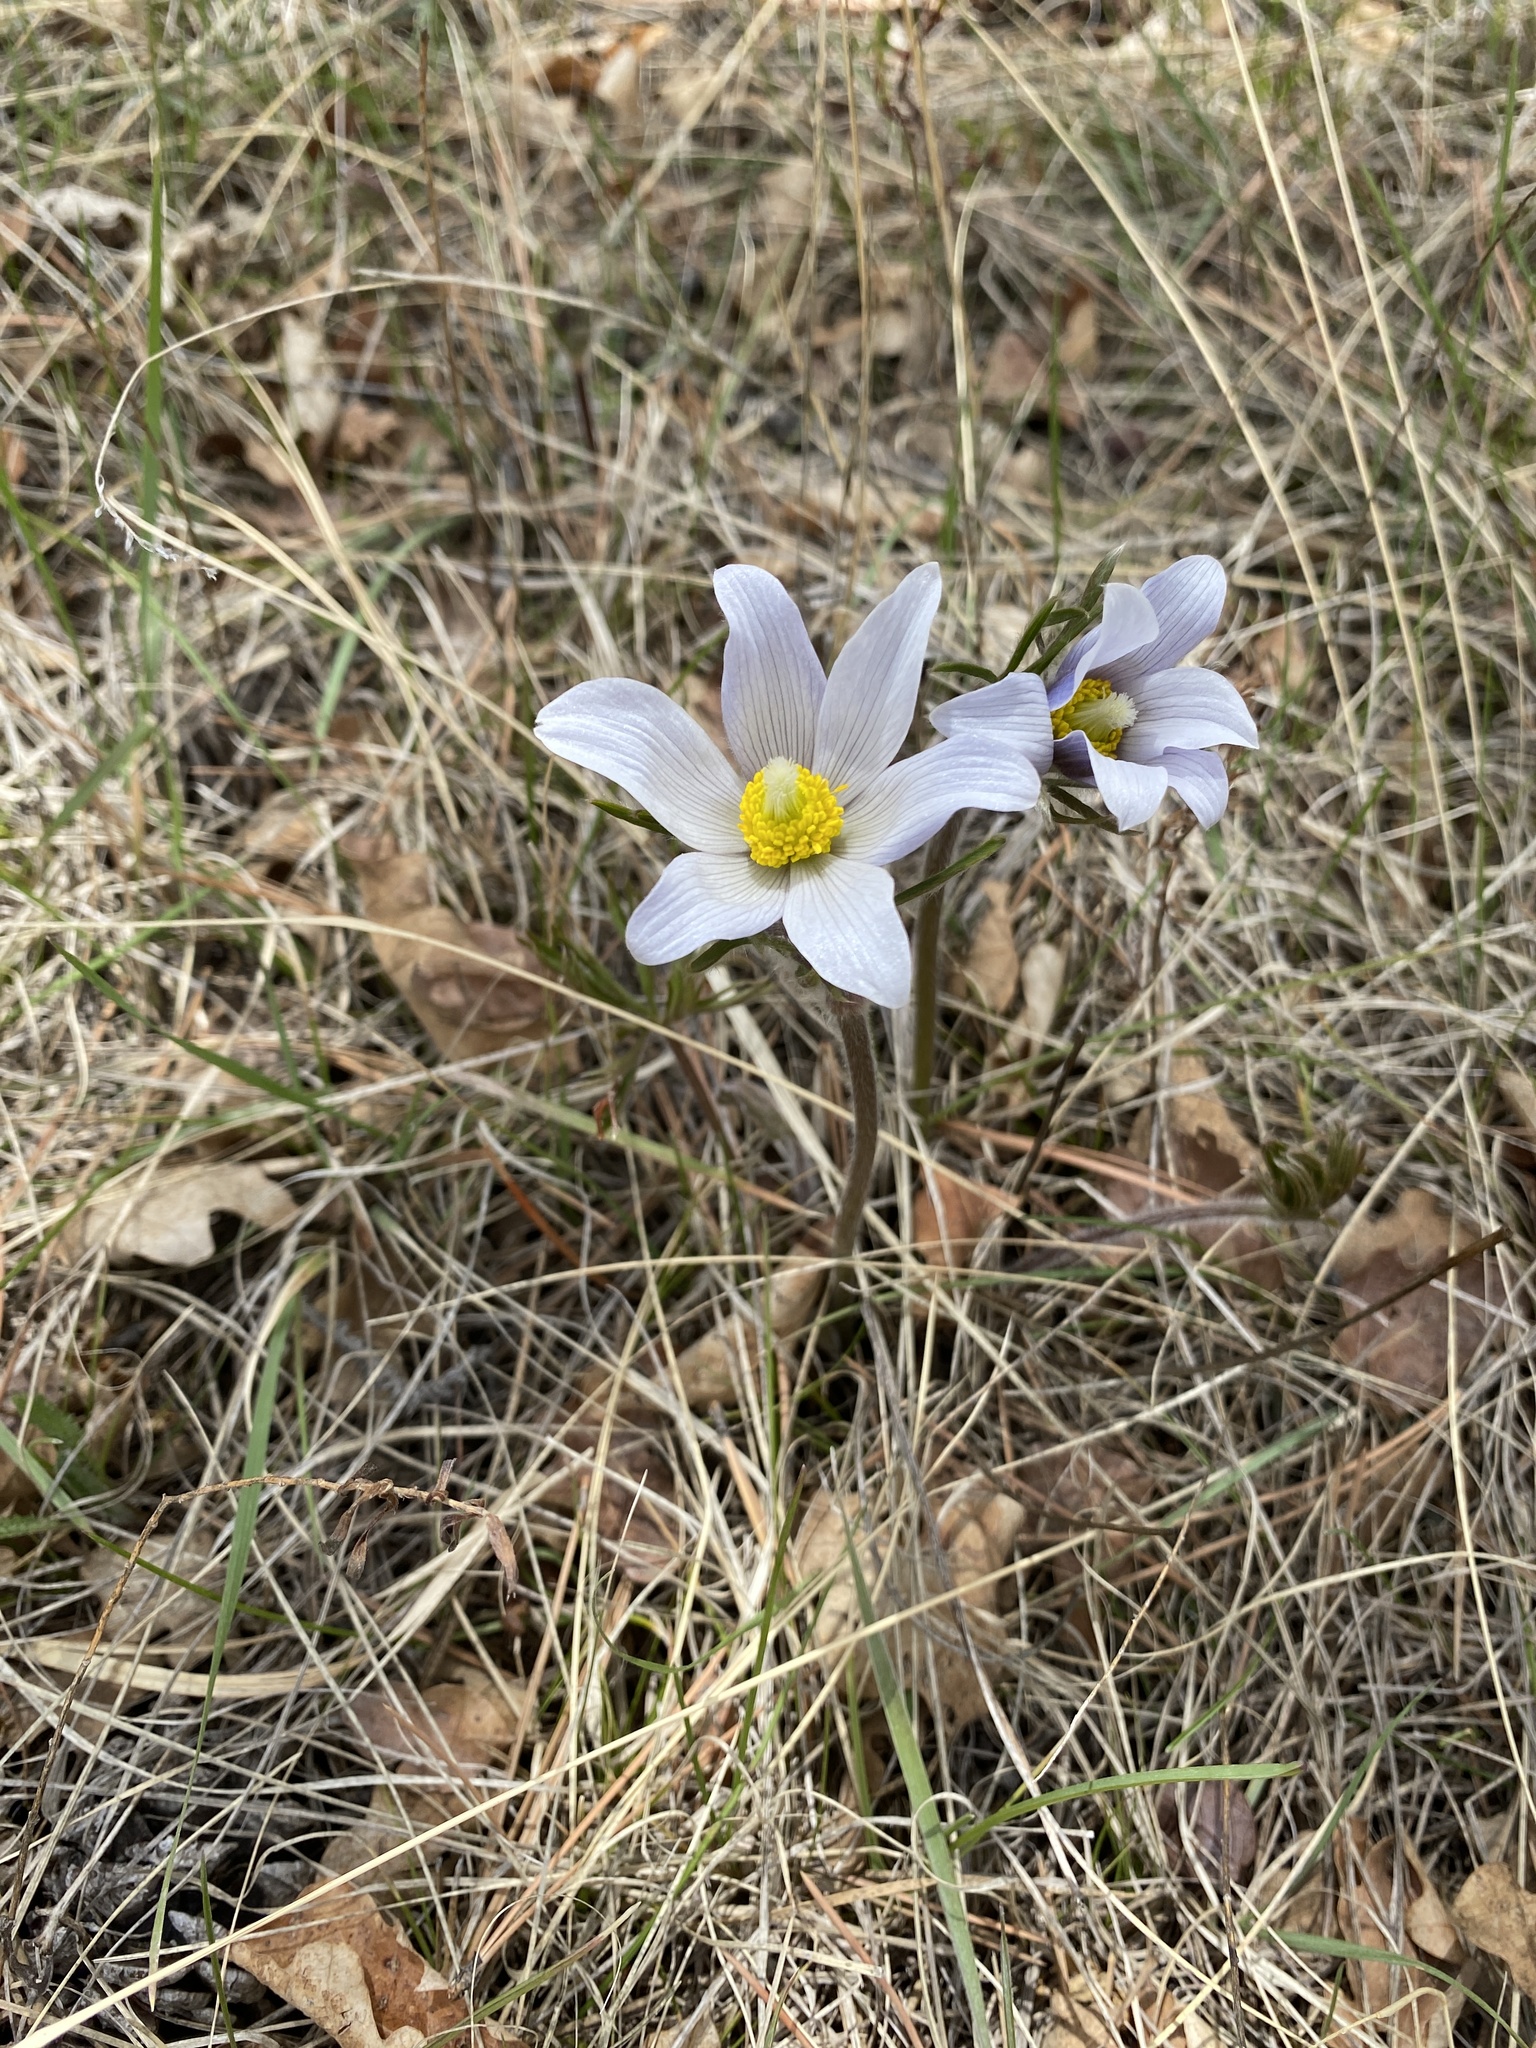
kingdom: Plantae
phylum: Tracheophyta
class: Magnoliopsida
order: Ranunculales
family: Ranunculaceae
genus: Pulsatilla
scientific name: Pulsatilla nuttalliana
